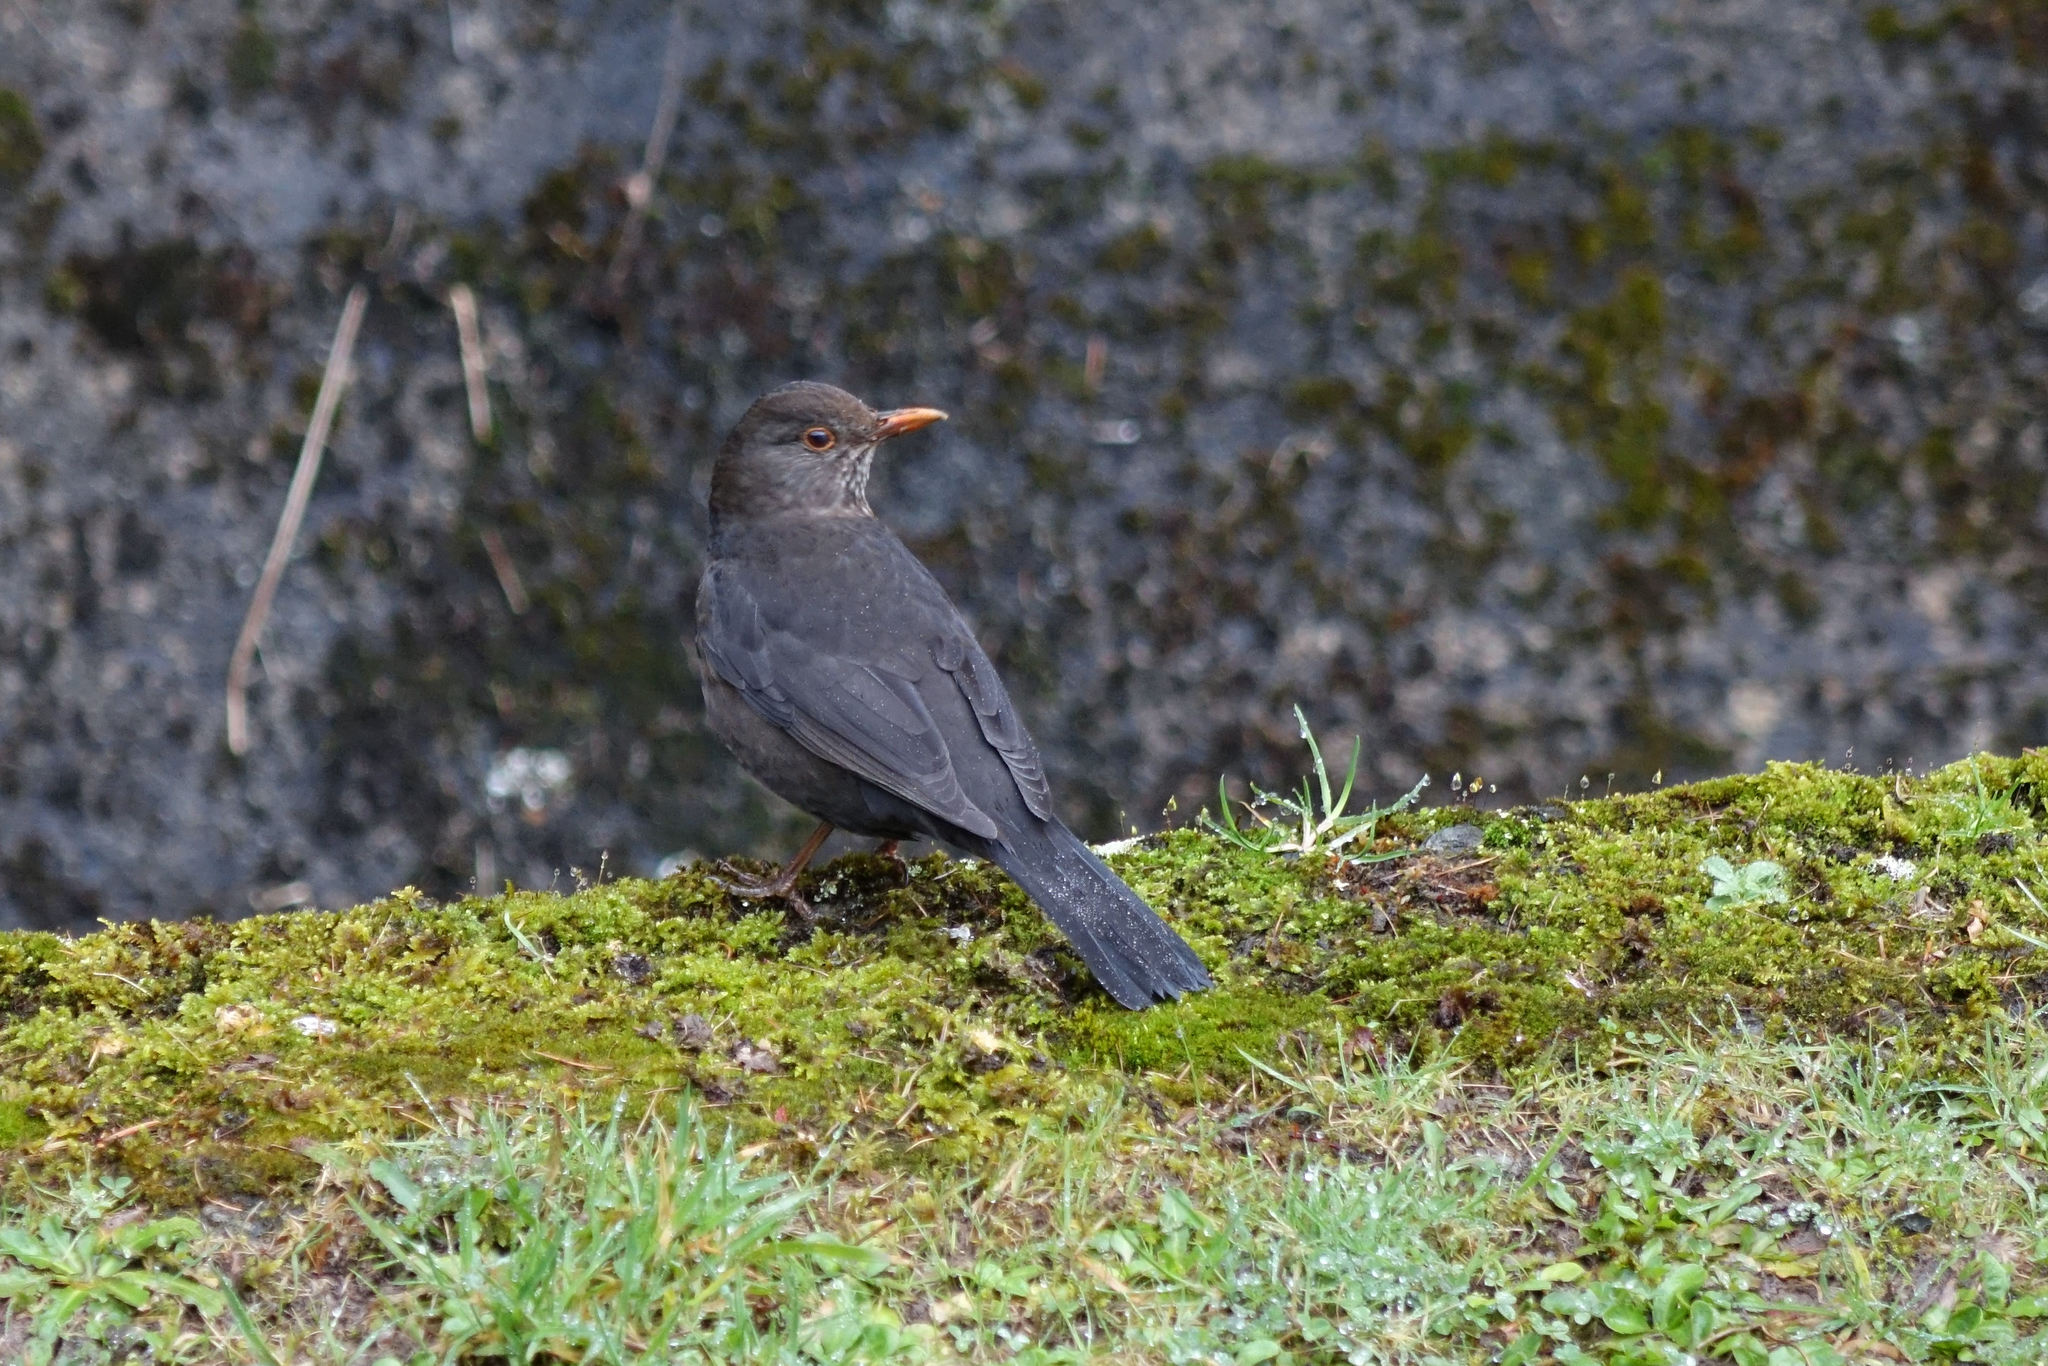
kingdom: Animalia
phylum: Chordata
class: Aves
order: Passeriformes
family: Turdidae
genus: Turdus
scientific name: Turdus merula
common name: Common blackbird
